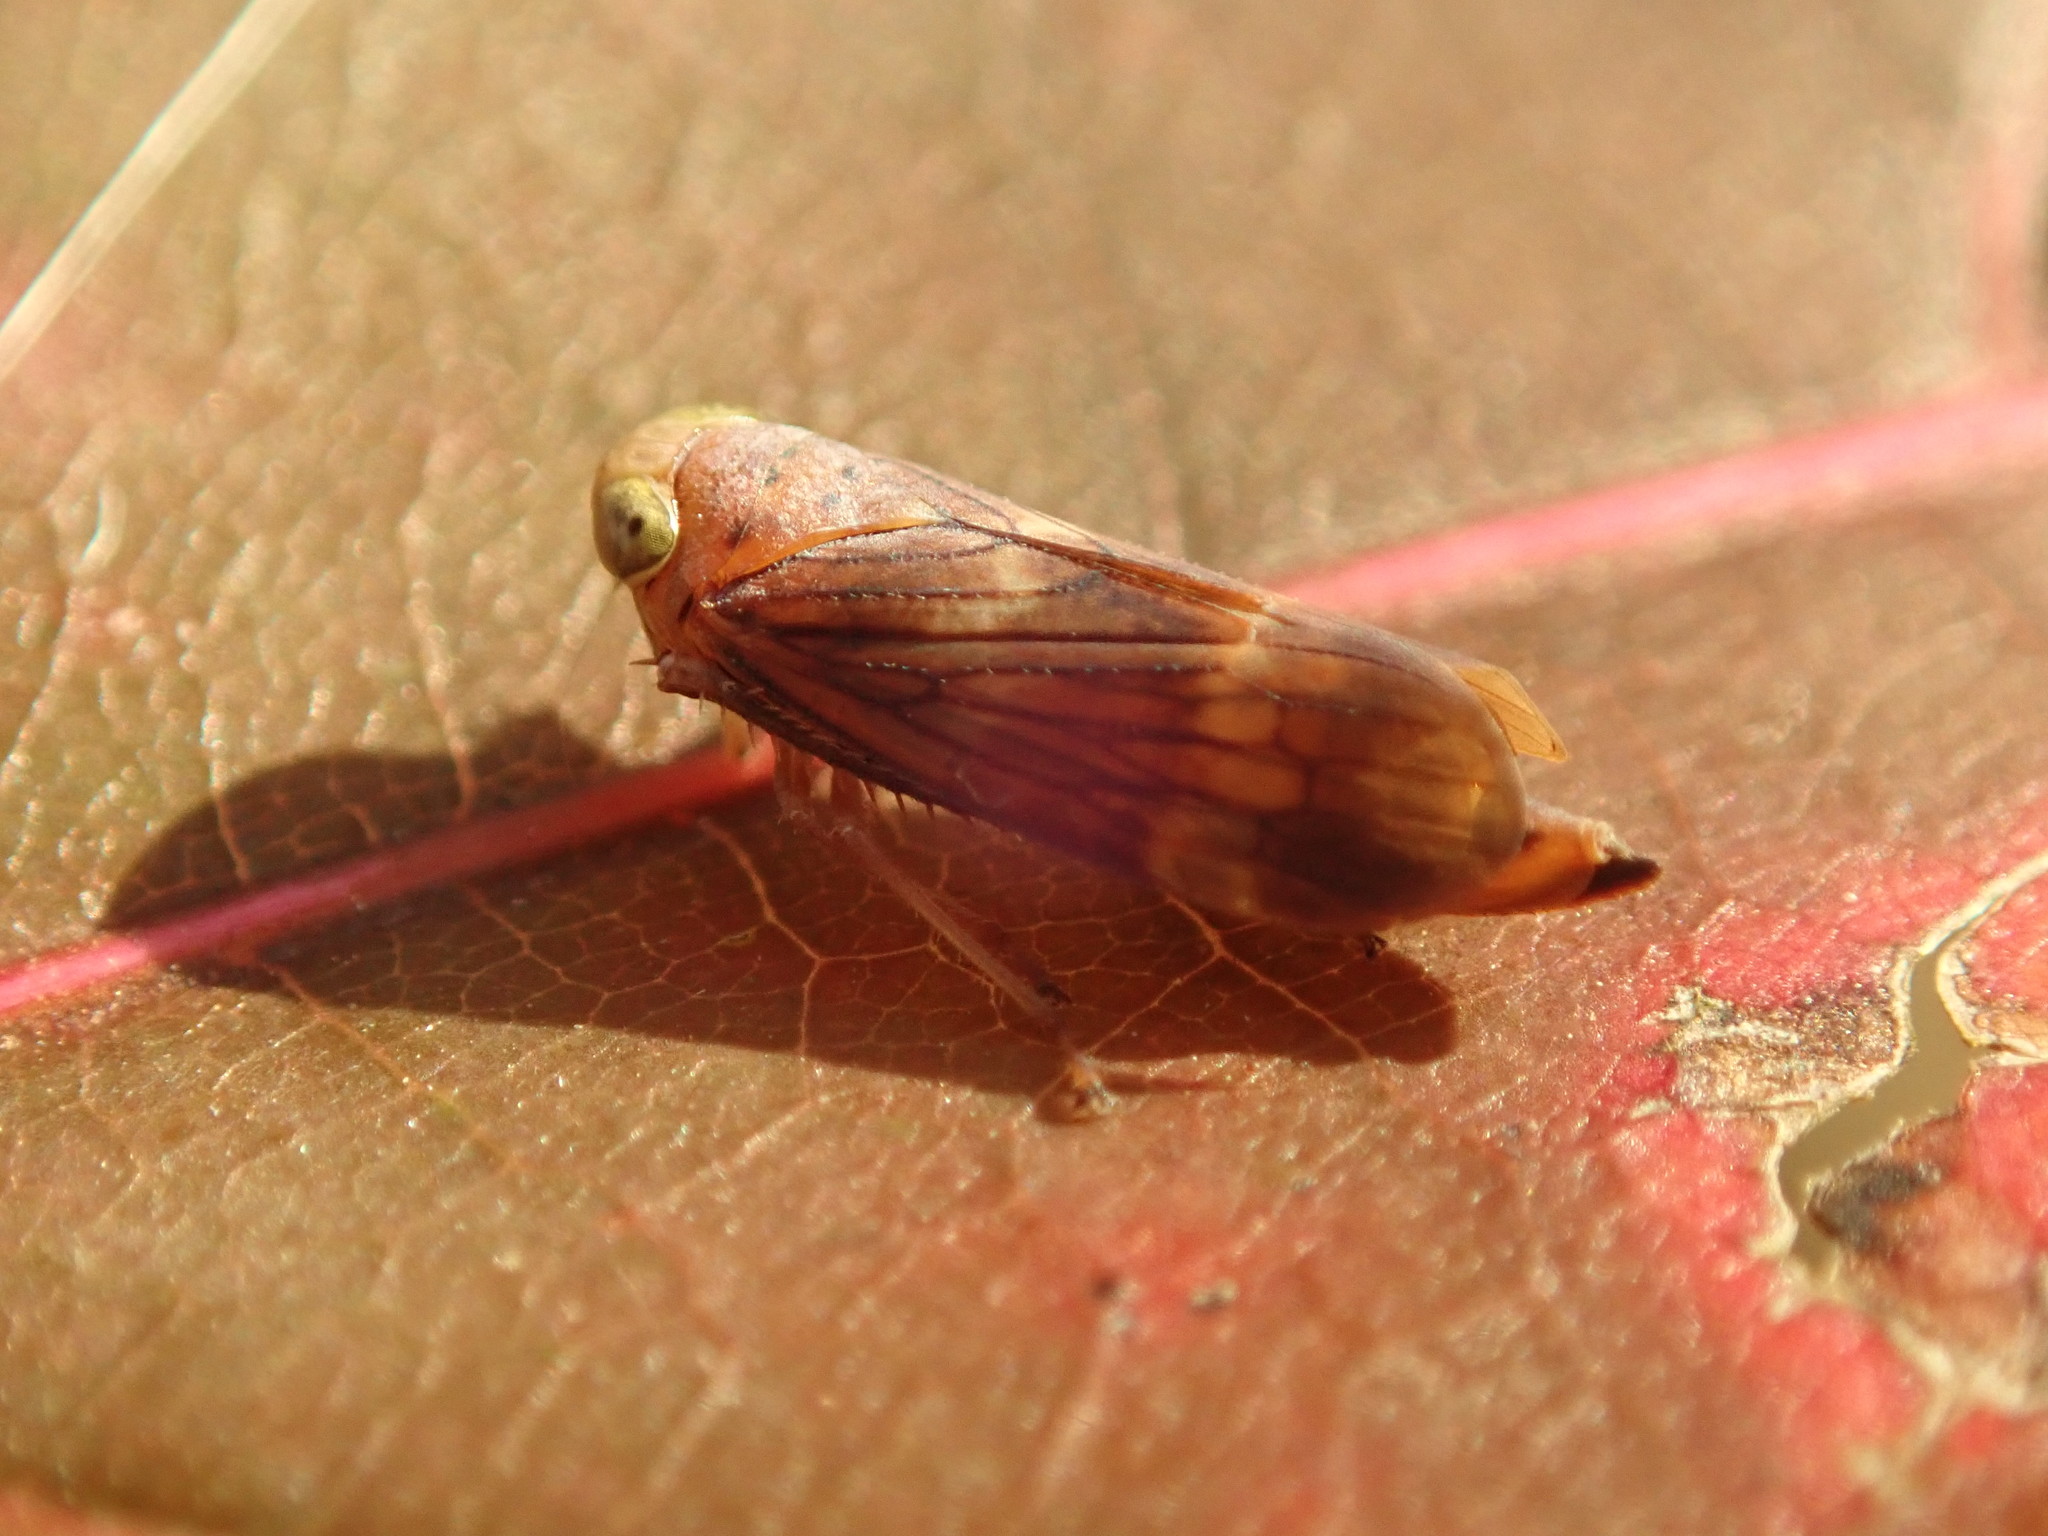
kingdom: Animalia
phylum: Arthropoda
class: Insecta
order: Hemiptera
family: Cicadellidae
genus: Jikradia
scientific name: Jikradia olitoria
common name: Coppery leafhopper
